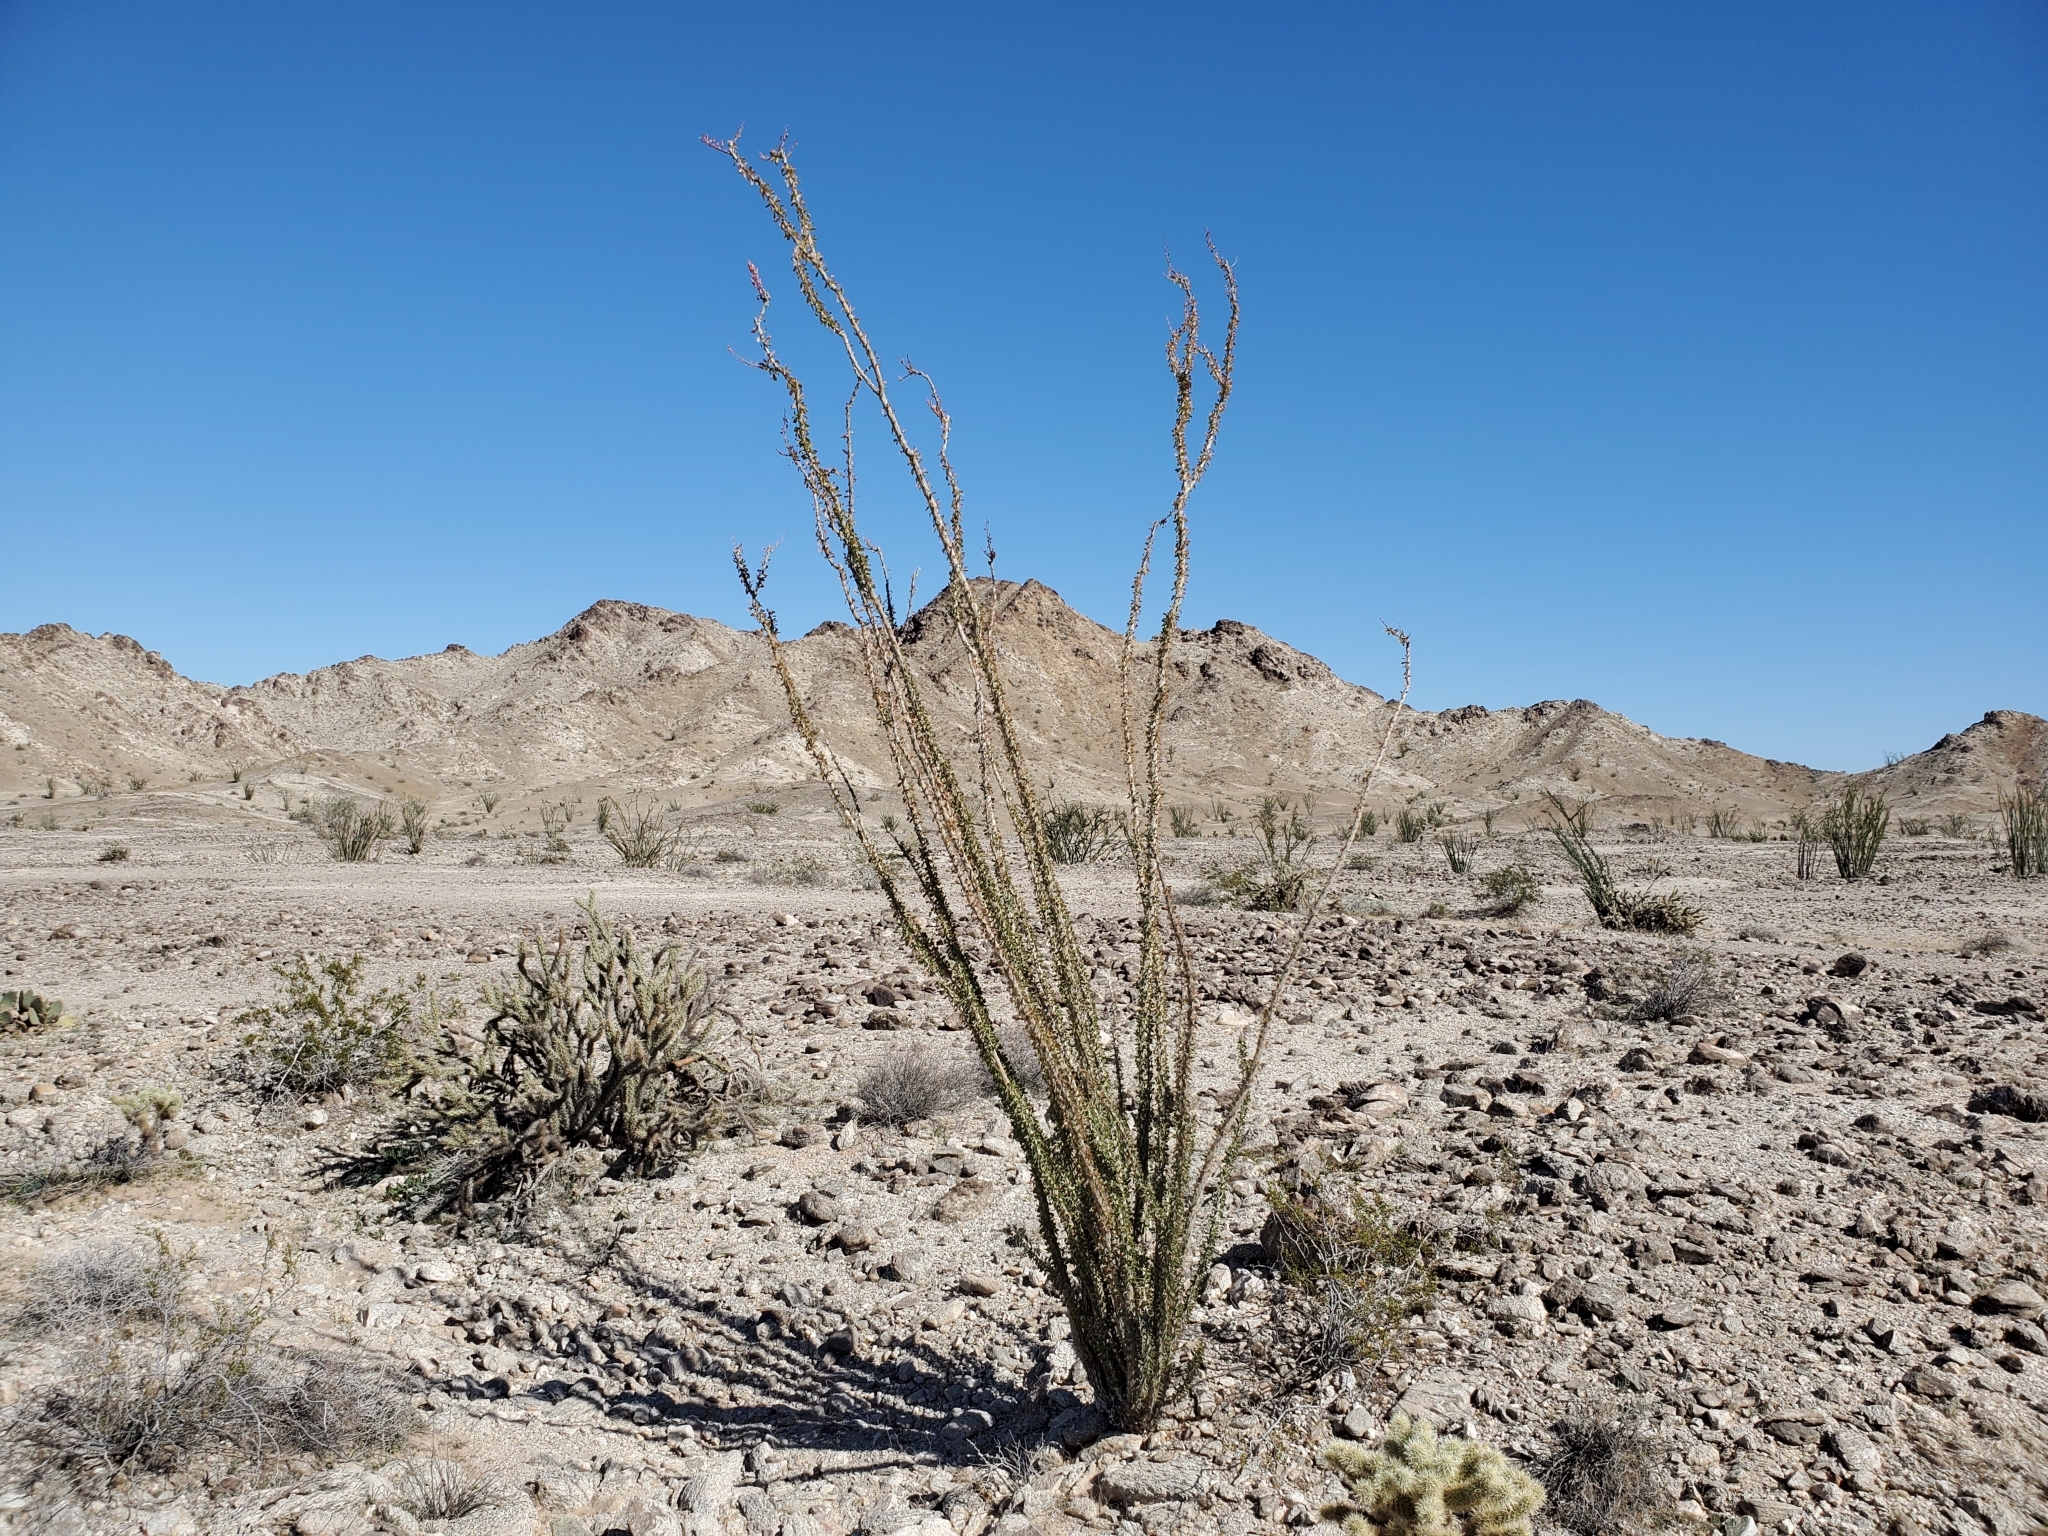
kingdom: Plantae
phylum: Tracheophyta
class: Magnoliopsida
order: Ericales
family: Fouquieriaceae
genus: Fouquieria
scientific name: Fouquieria splendens
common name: Vine-cactus
